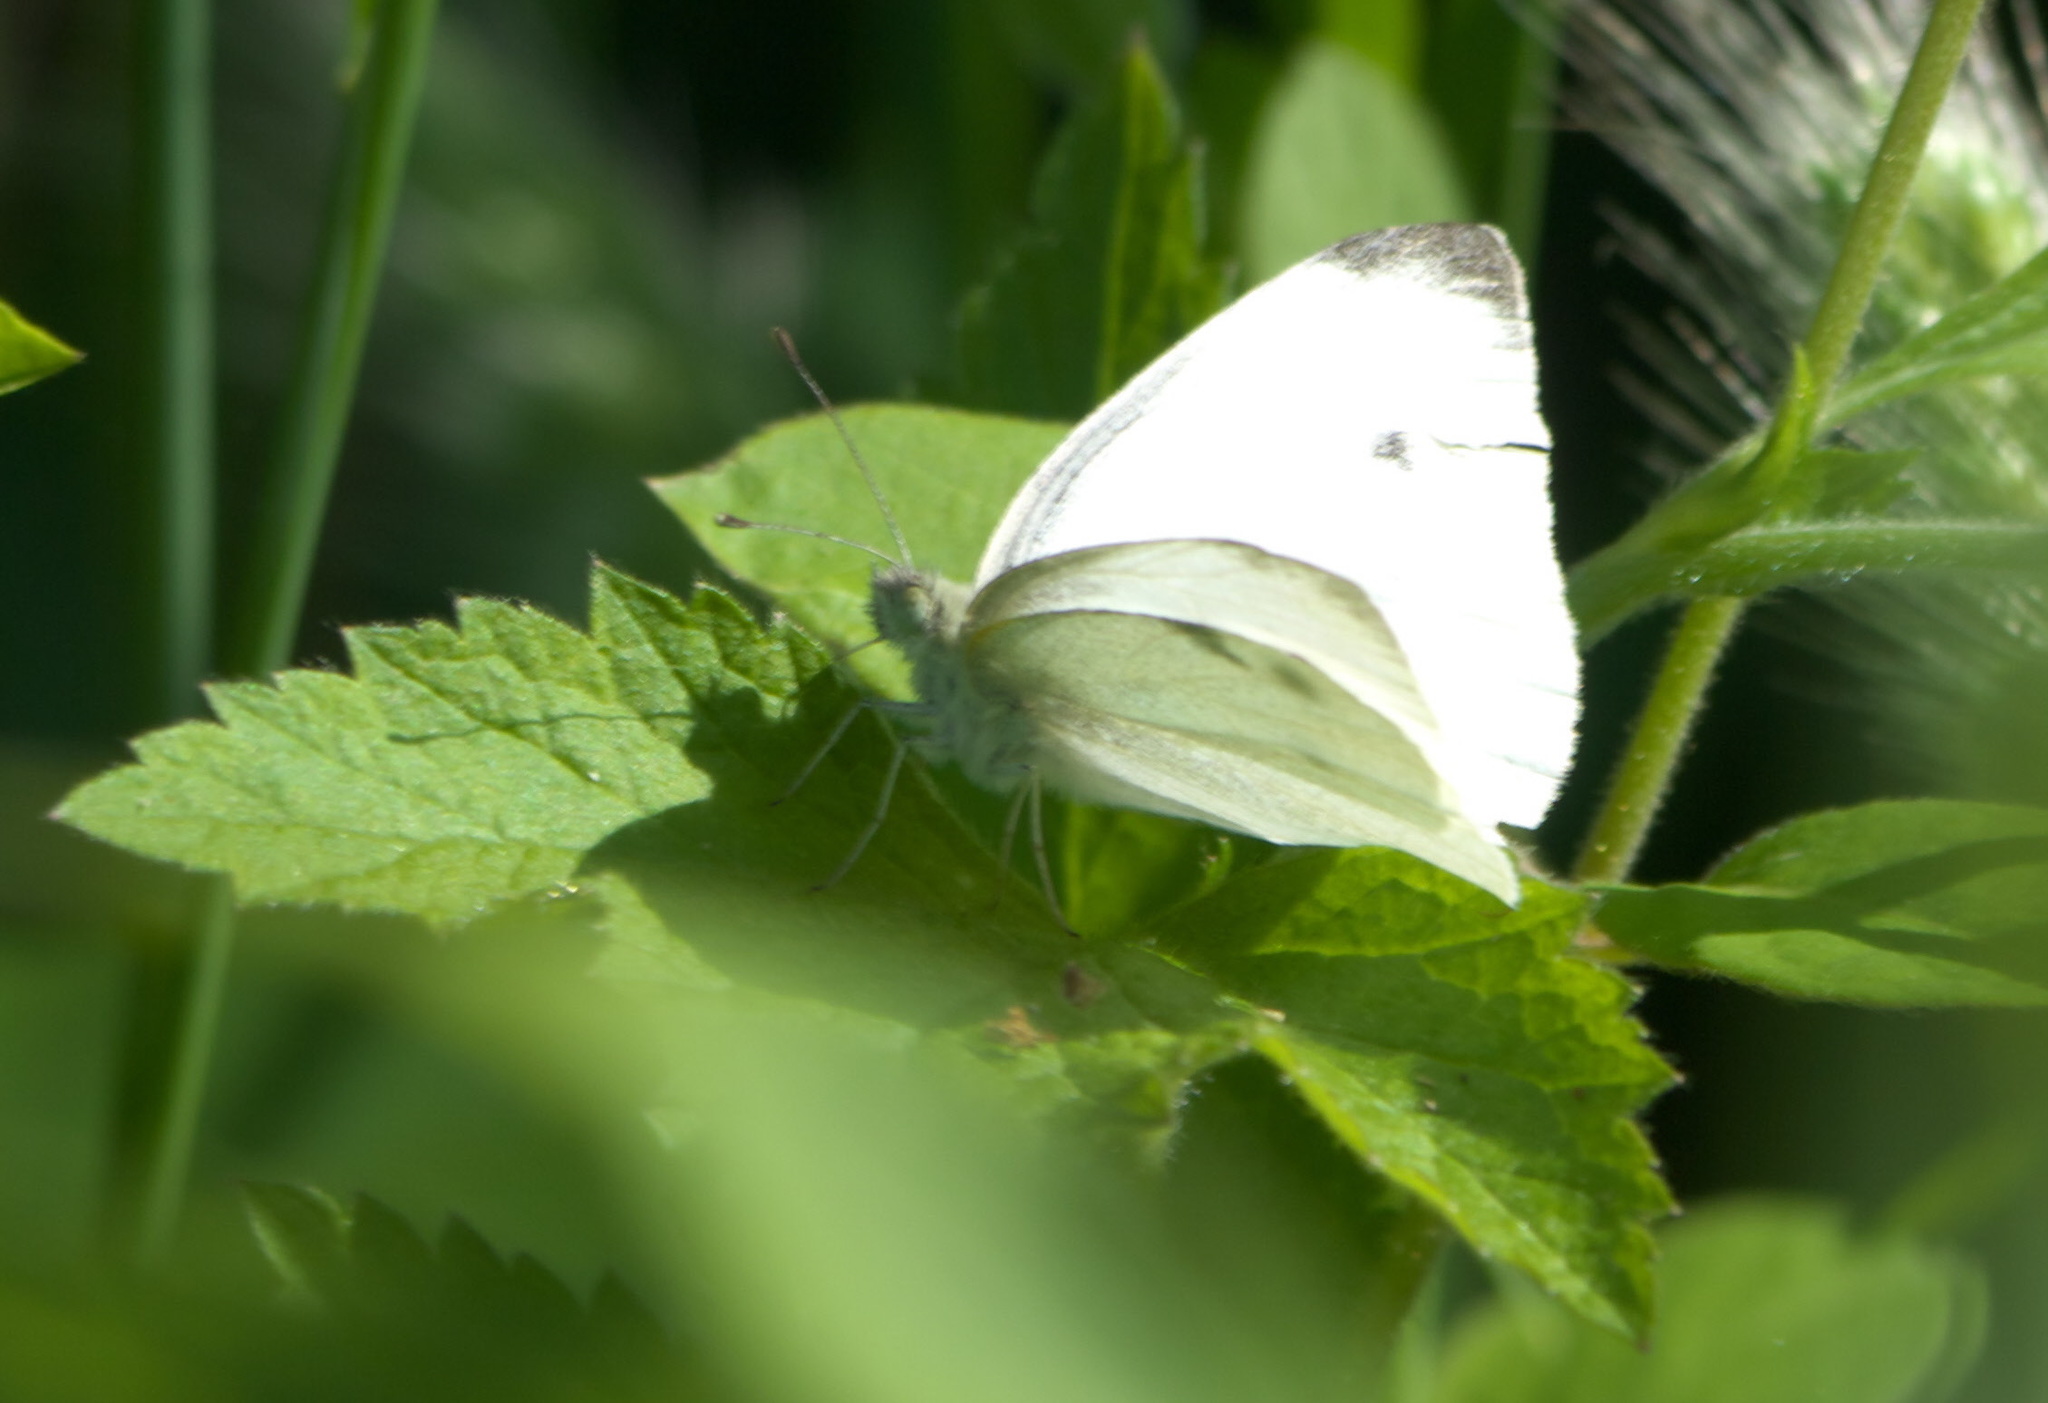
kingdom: Animalia
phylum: Arthropoda
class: Insecta
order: Lepidoptera
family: Pieridae
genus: Pieris
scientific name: Pieris rapae
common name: Small white
